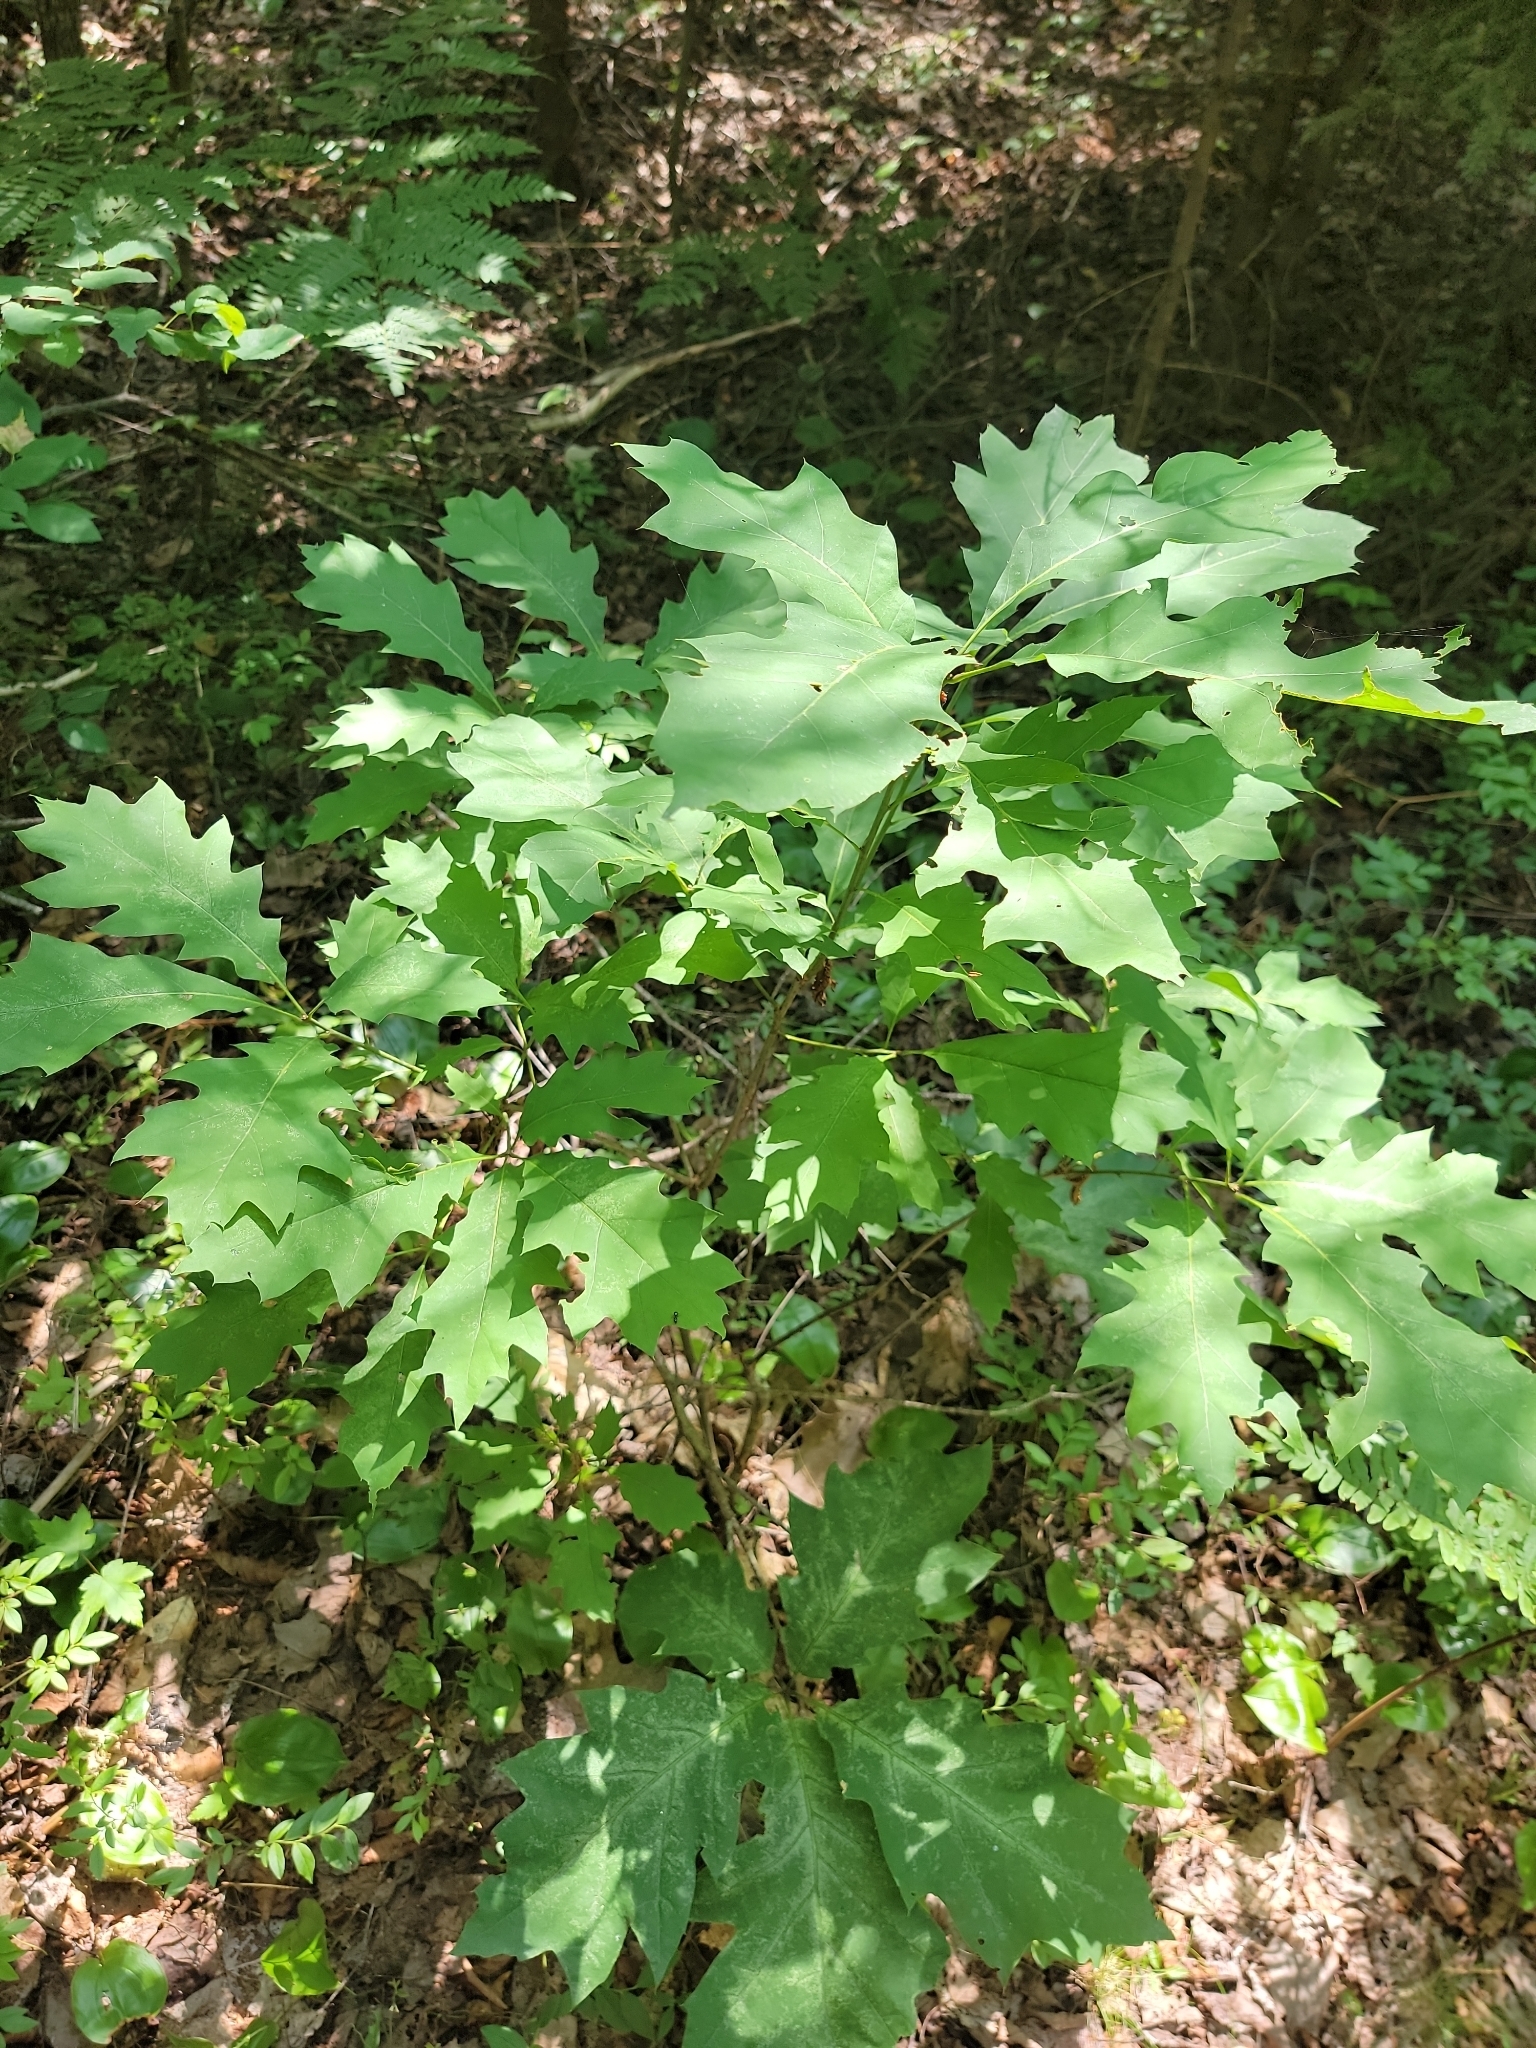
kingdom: Plantae
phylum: Tracheophyta
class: Magnoliopsida
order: Fagales
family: Fagaceae
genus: Quercus
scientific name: Quercus rubra
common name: Red oak
